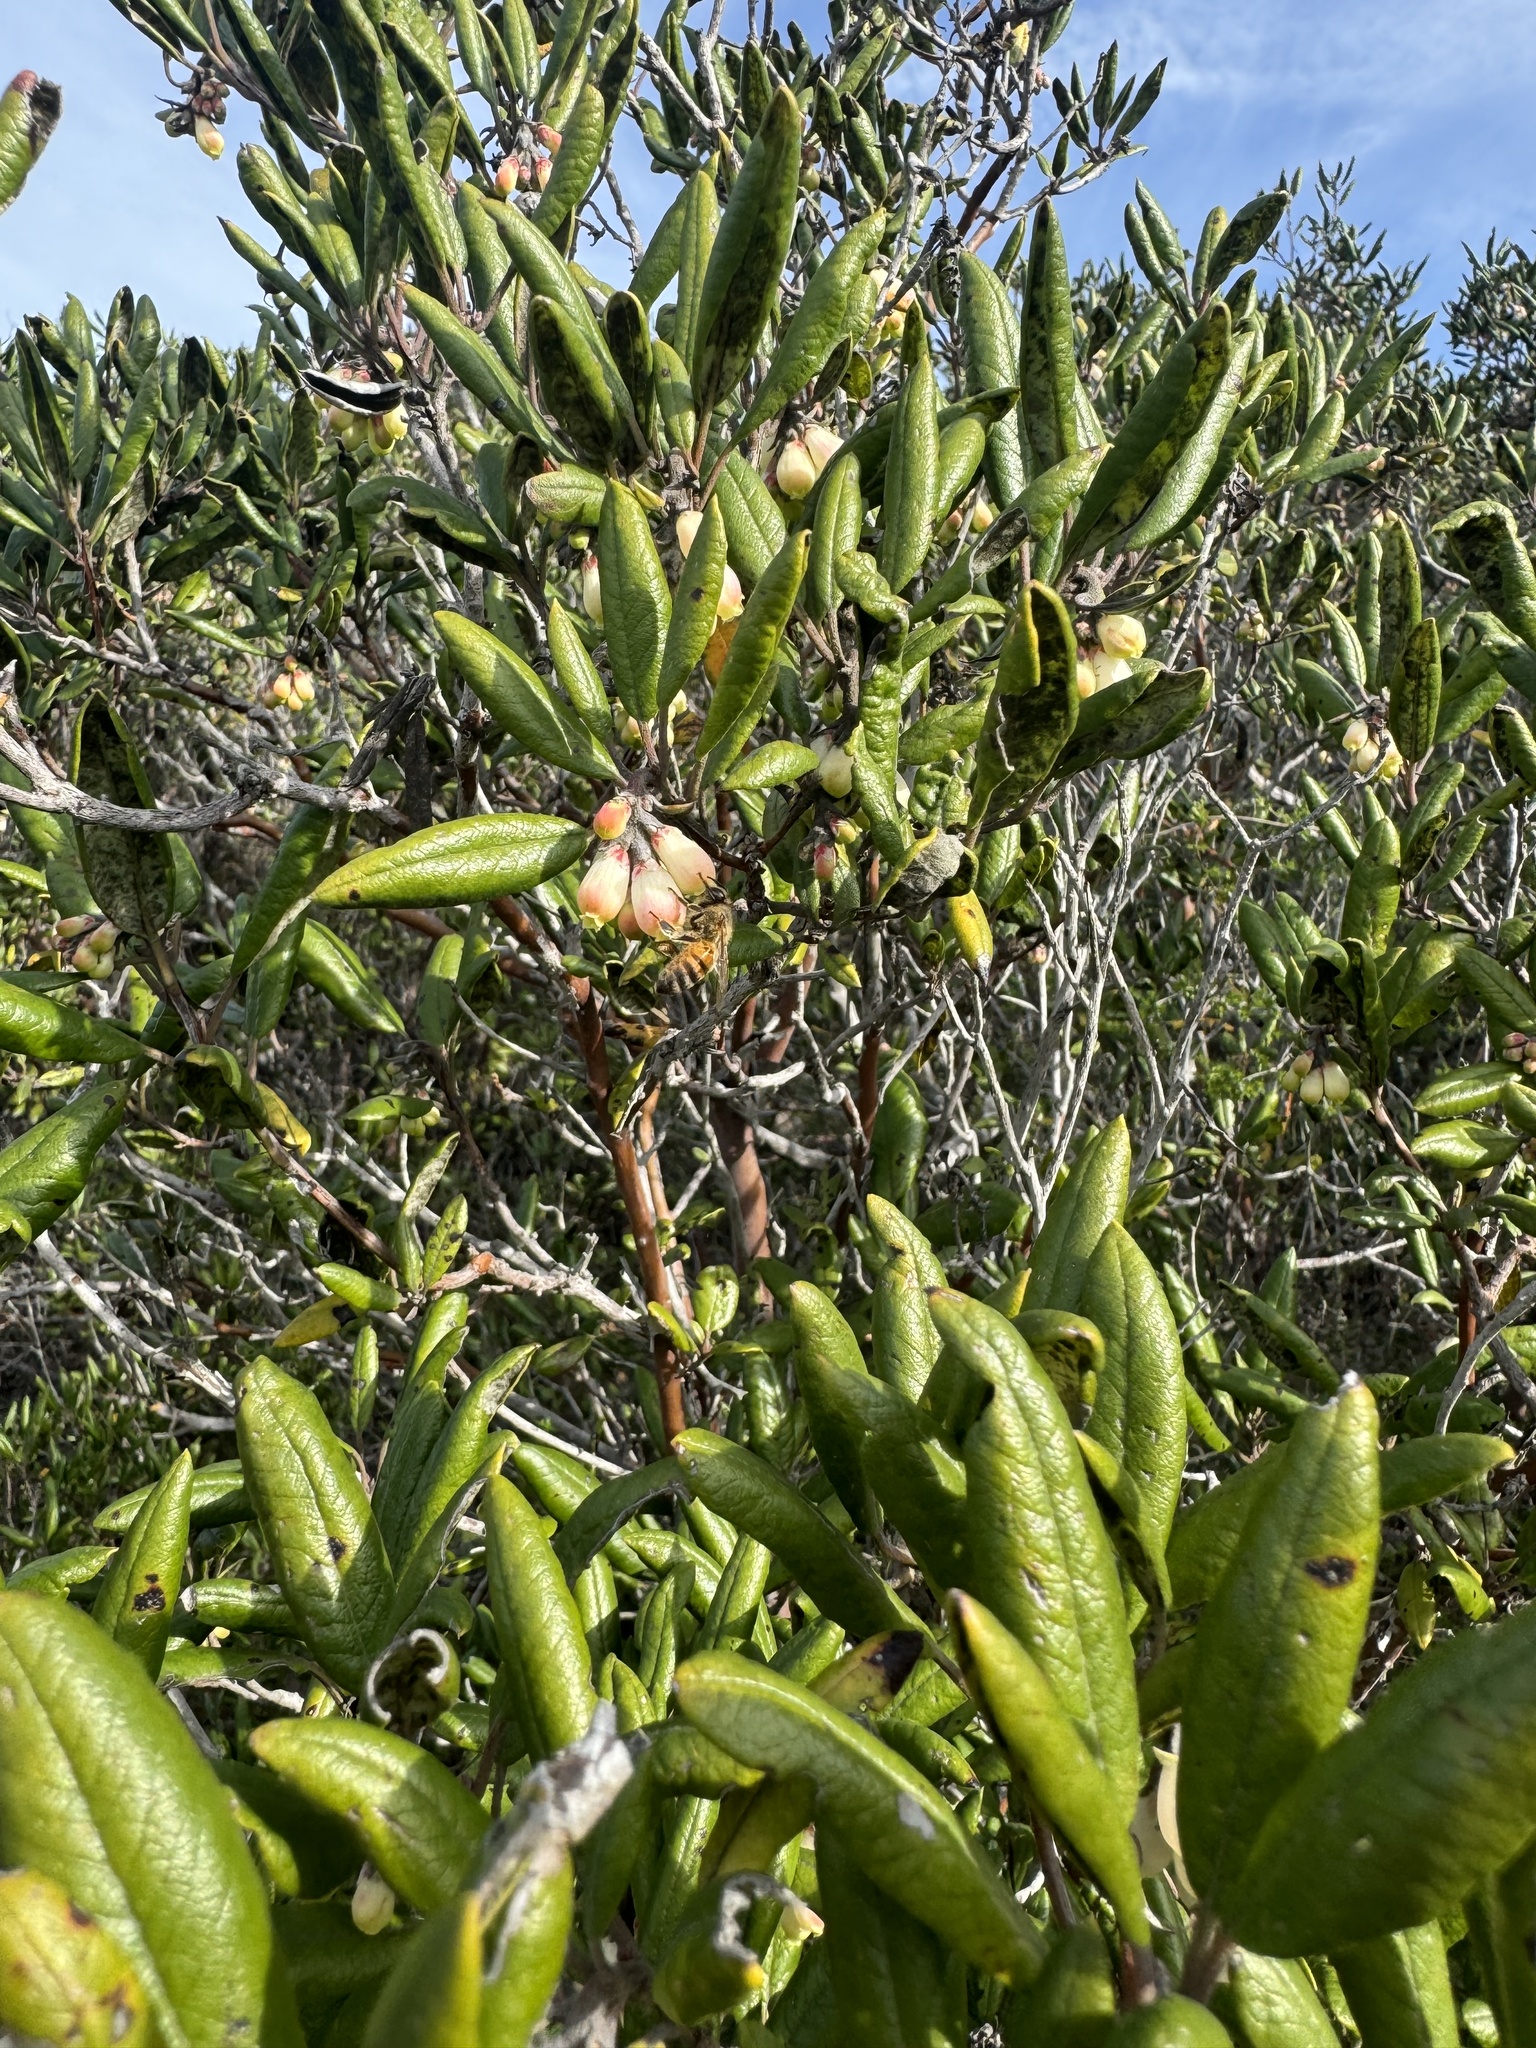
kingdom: Plantae
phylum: Tracheophyta
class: Magnoliopsida
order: Ericales
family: Ericaceae
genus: Arctostaphylos
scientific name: Arctostaphylos bicolor
